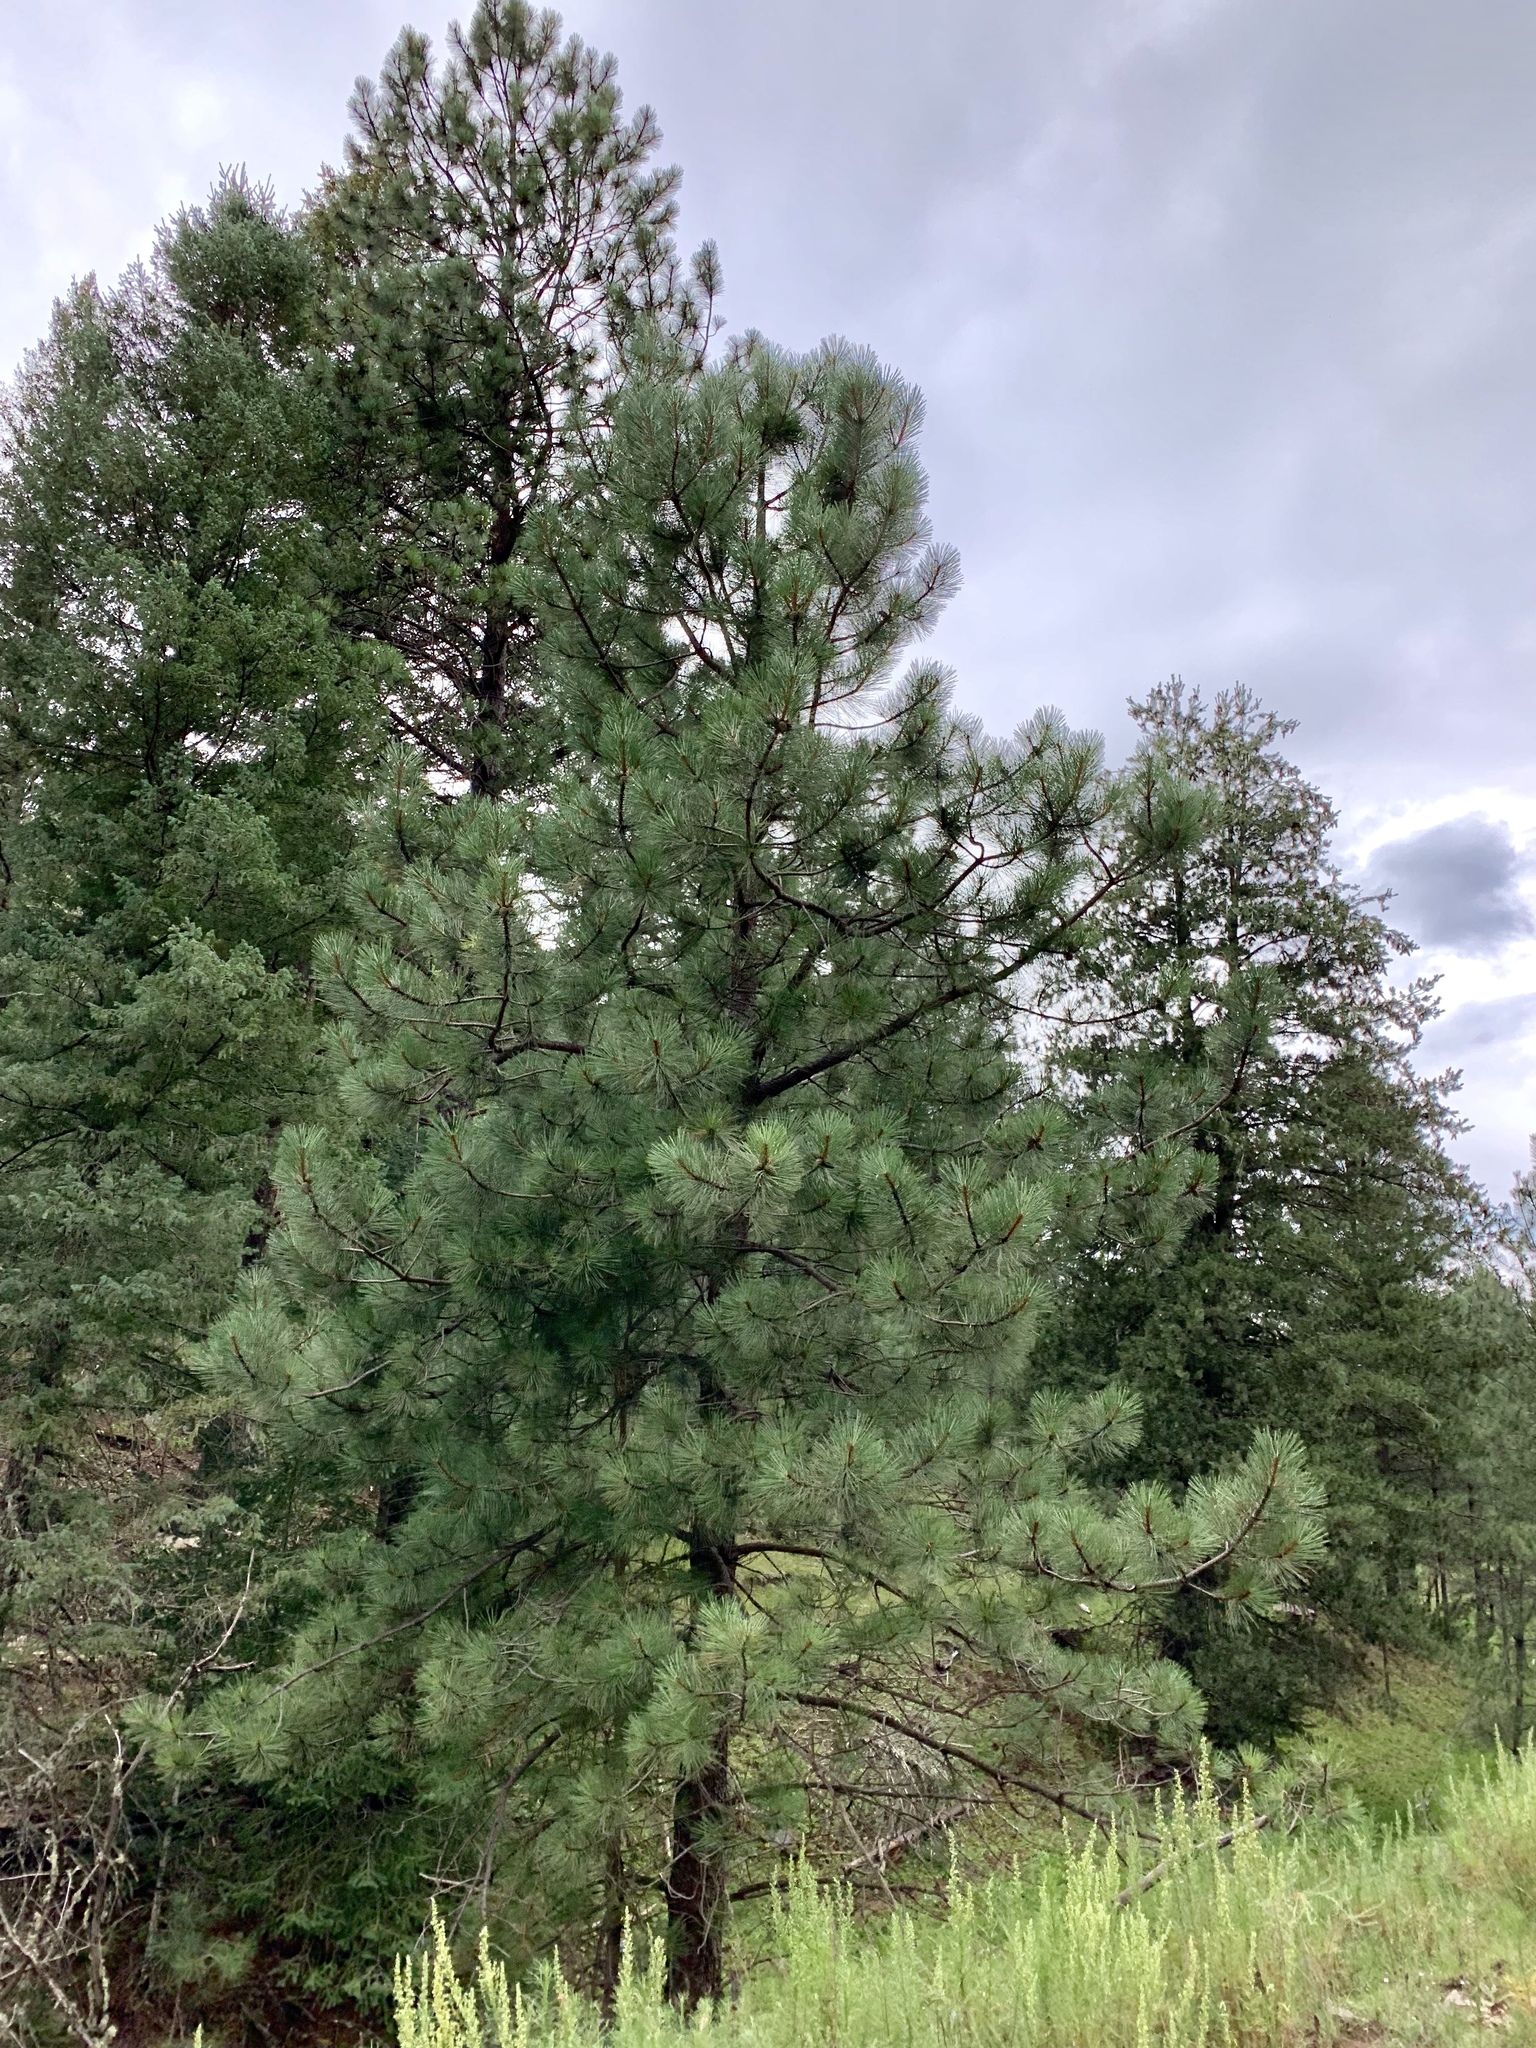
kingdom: Plantae
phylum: Tracheophyta
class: Pinopsida
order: Pinales
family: Pinaceae
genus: Pinus
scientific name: Pinus ponderosa
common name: Western yellow-pine
